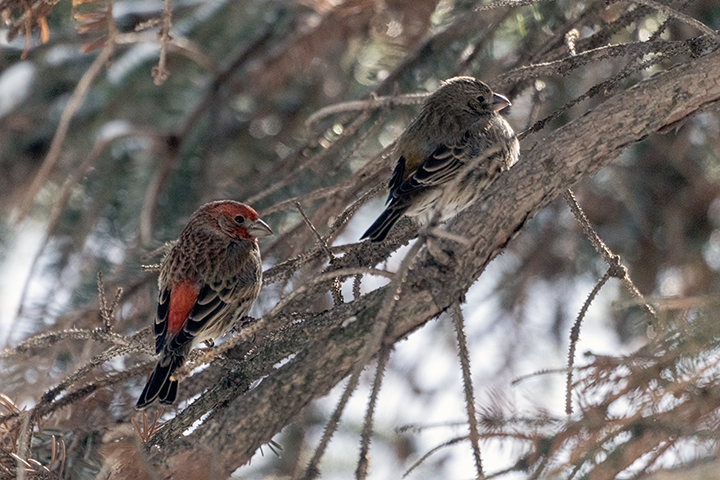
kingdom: Animalia
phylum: Chordata
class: Aves
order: Passeriformes
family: Fringillidae
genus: Haemorhous
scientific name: Haemorhous mexicanus
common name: House finch
